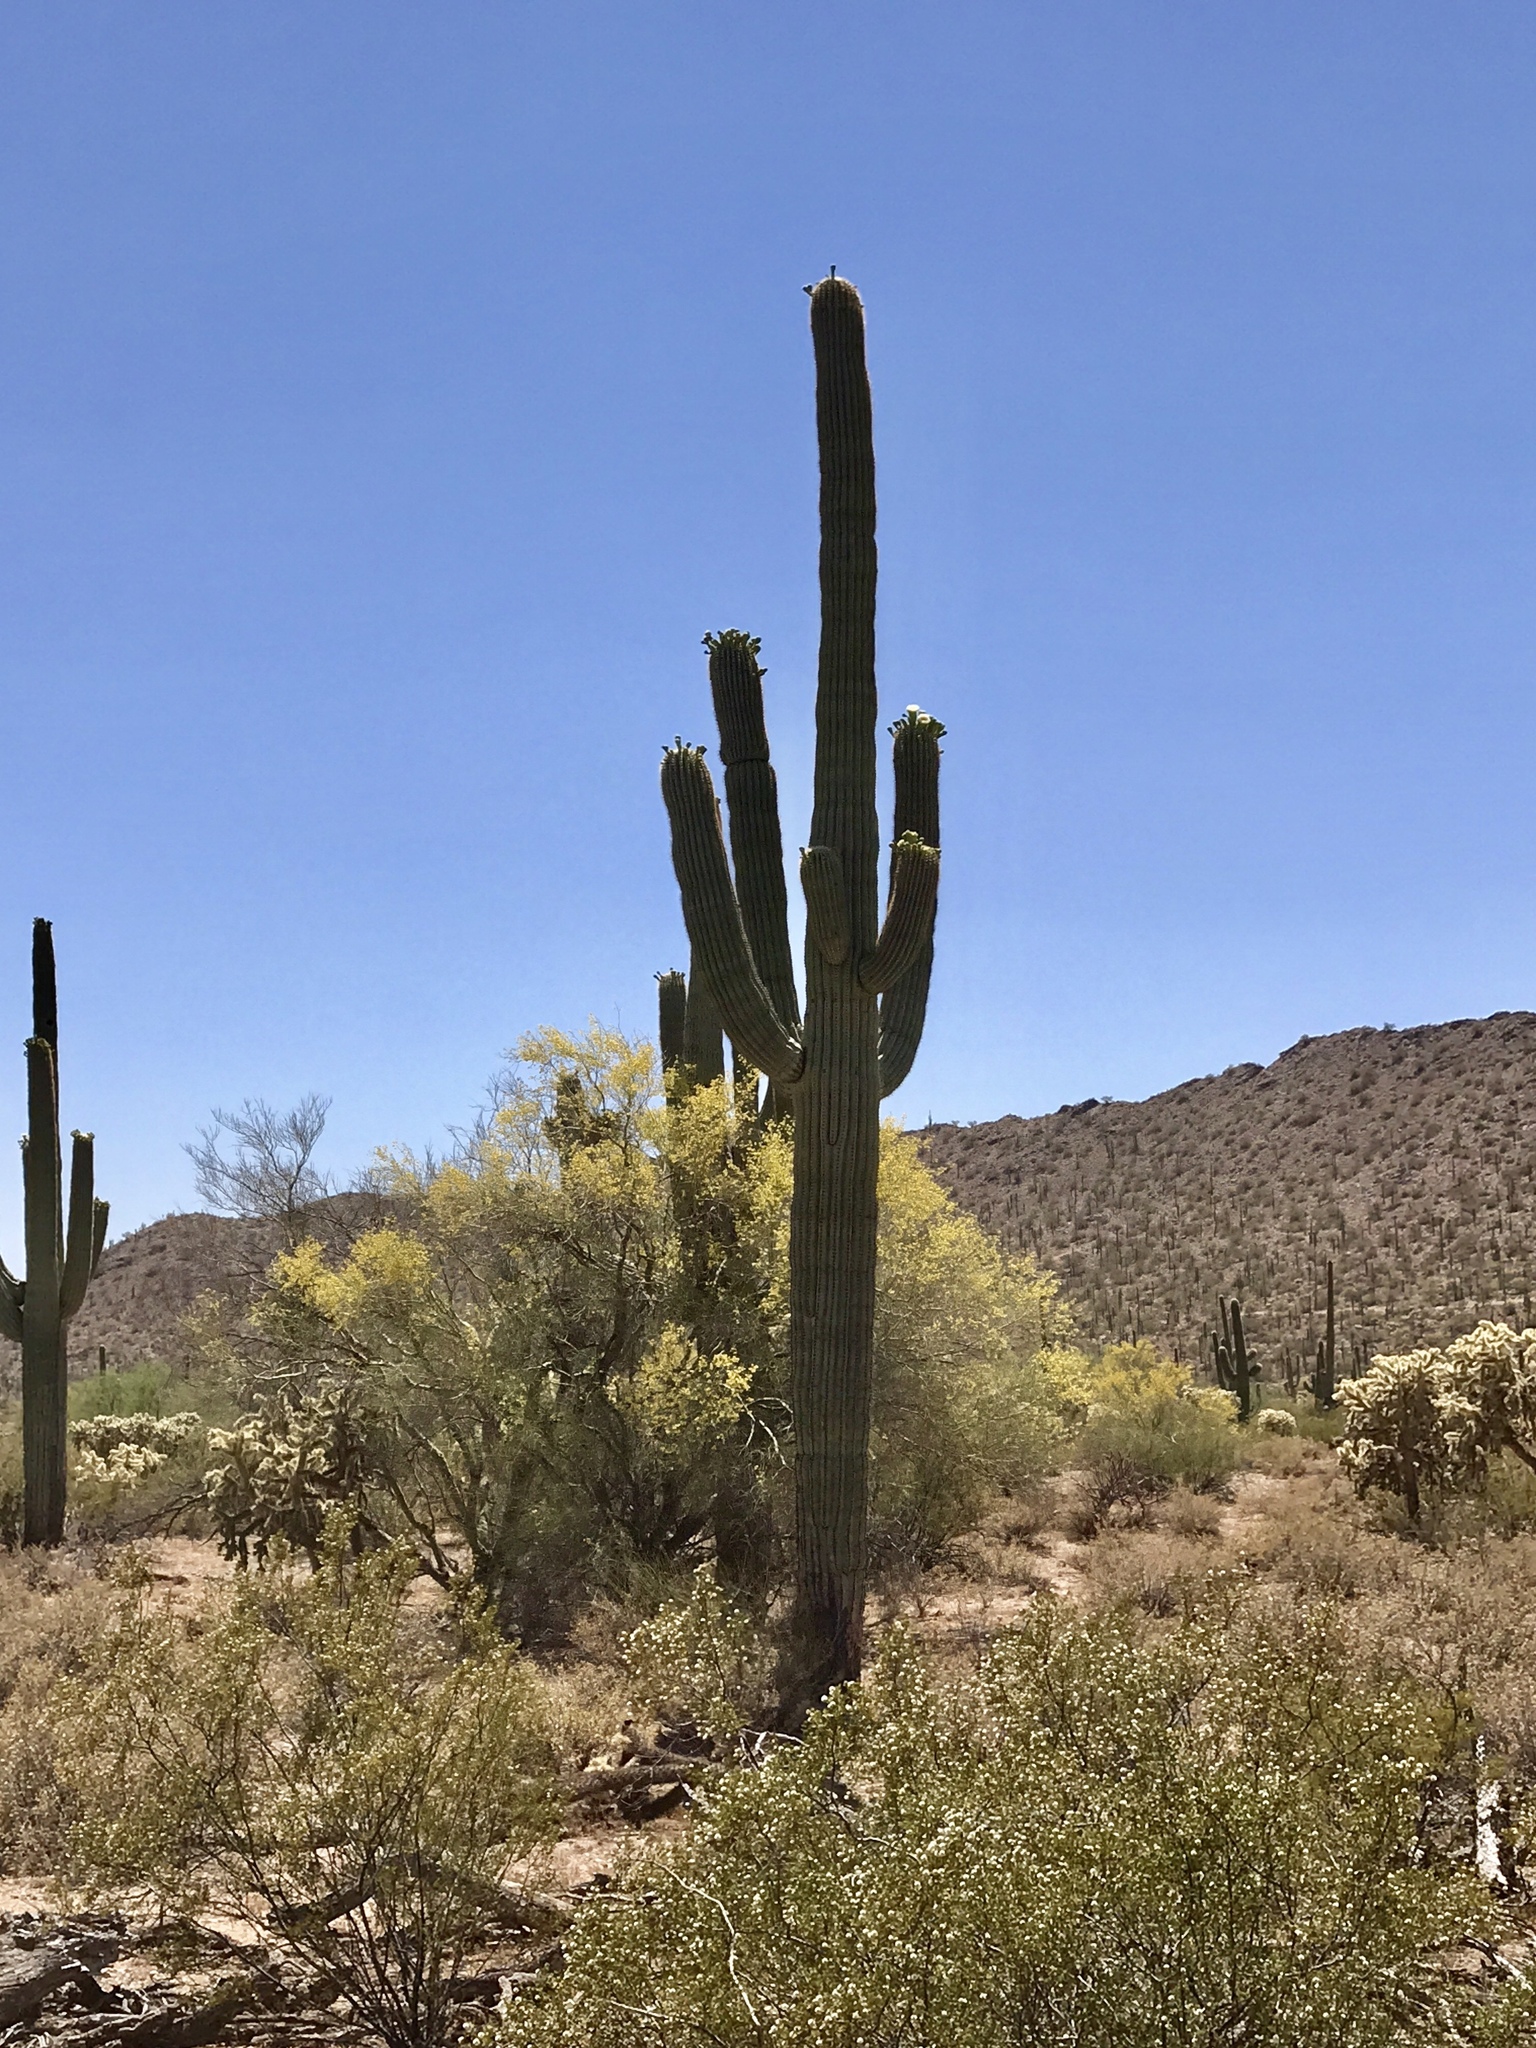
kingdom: Plantae
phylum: Tracheophyta
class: Magnoliopsida
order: Caryophyllales
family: Cactaceae
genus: Carnegiea
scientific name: Carnegiea gigantea
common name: Saguaro
